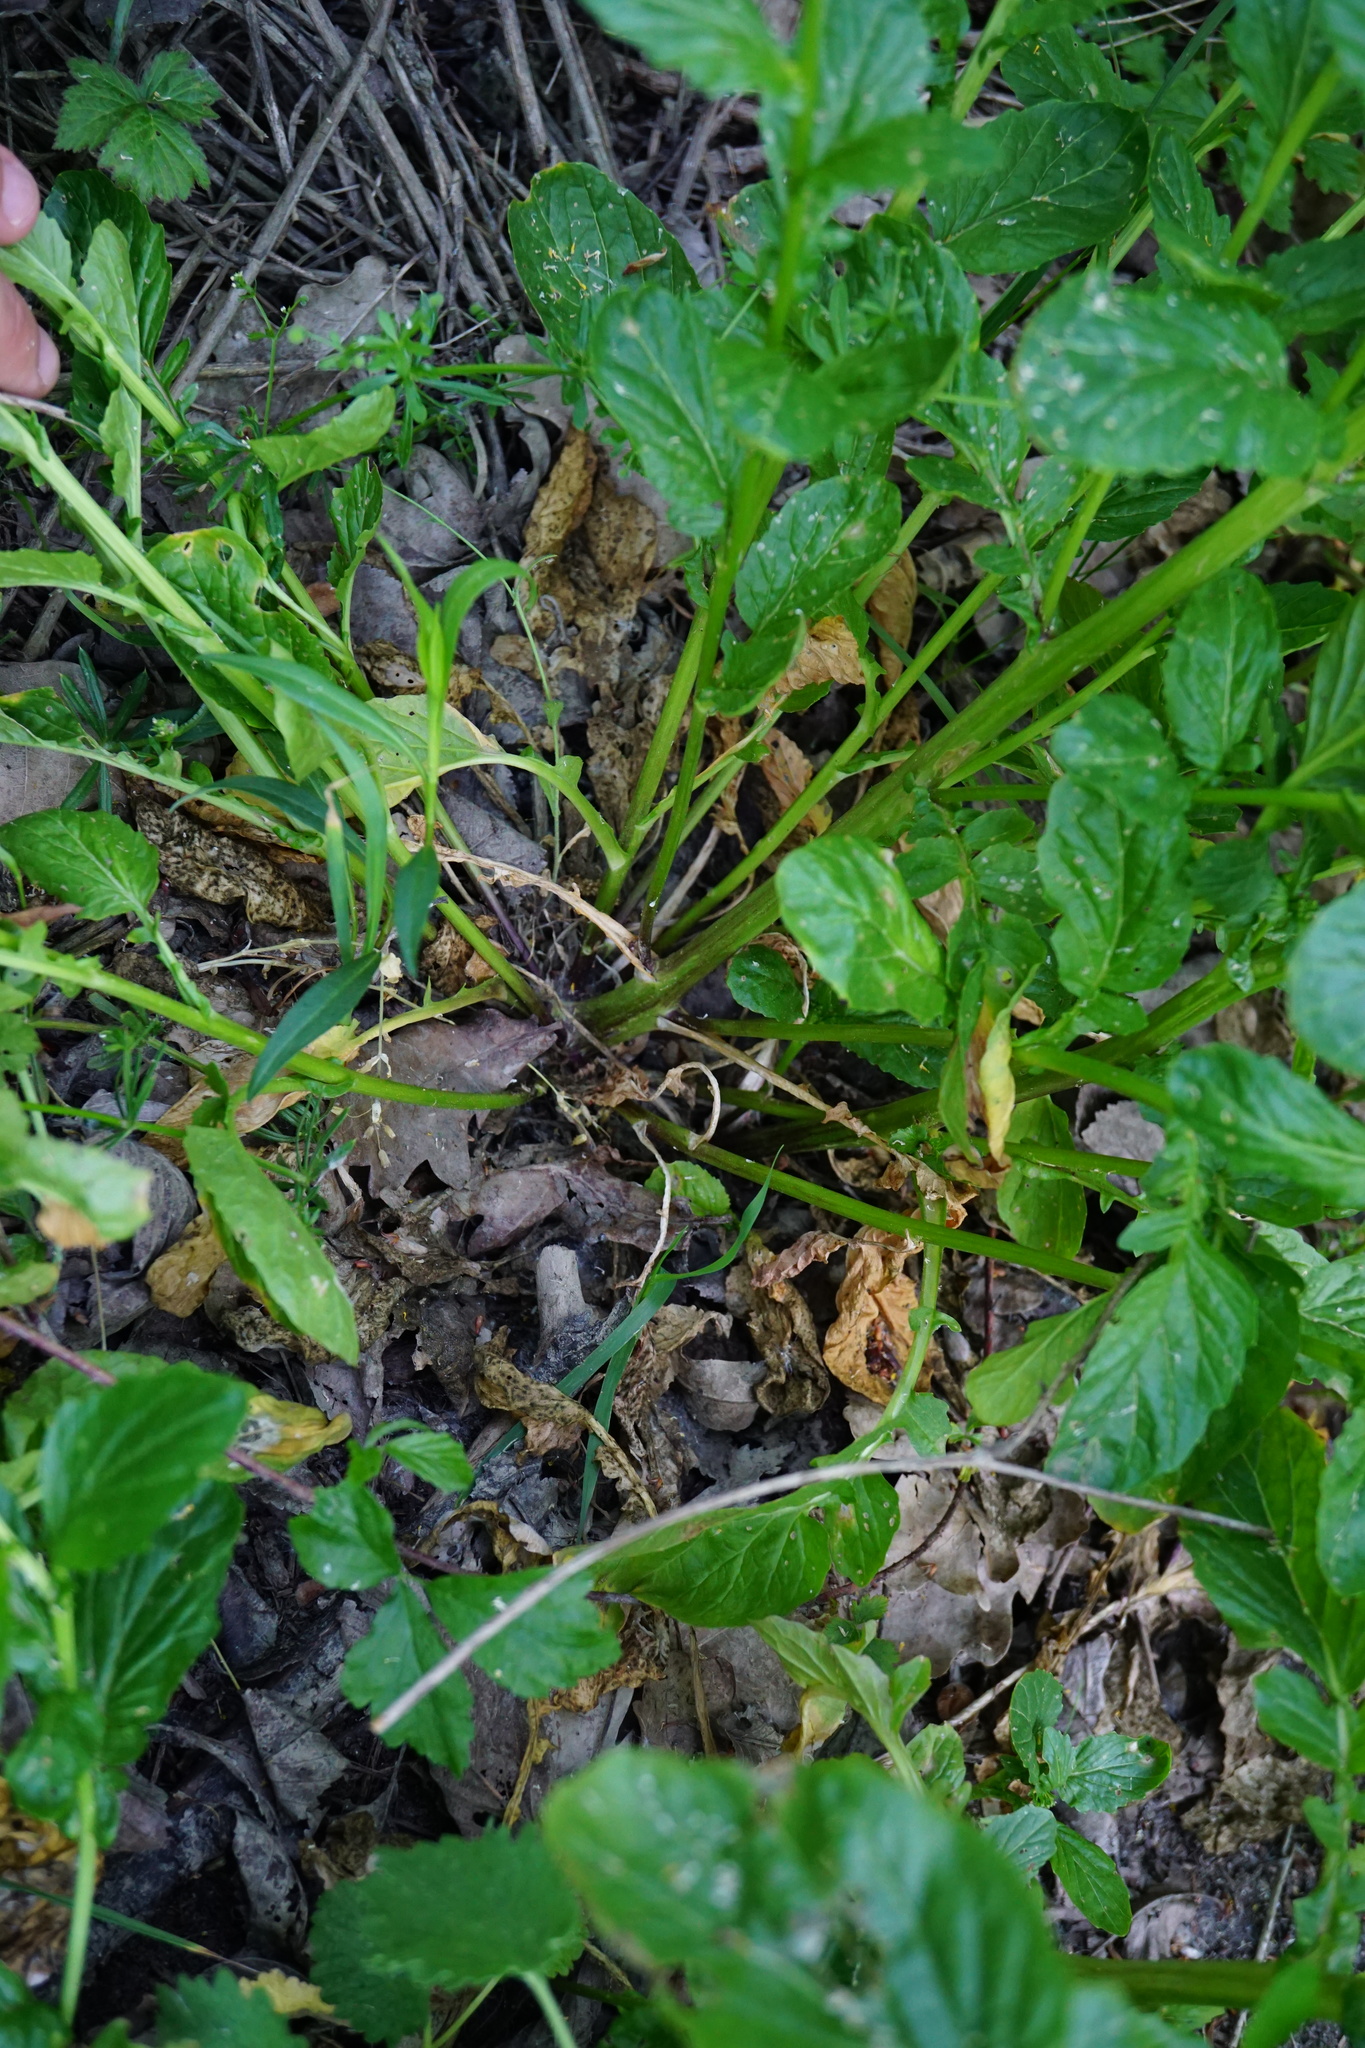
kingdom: Plantae
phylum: Tracheophyta
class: Magnoliopsida
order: Brassicales
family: Brassicaceae
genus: Barbarea
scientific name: Barbarea stricta
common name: Small-flowered winter-cress
